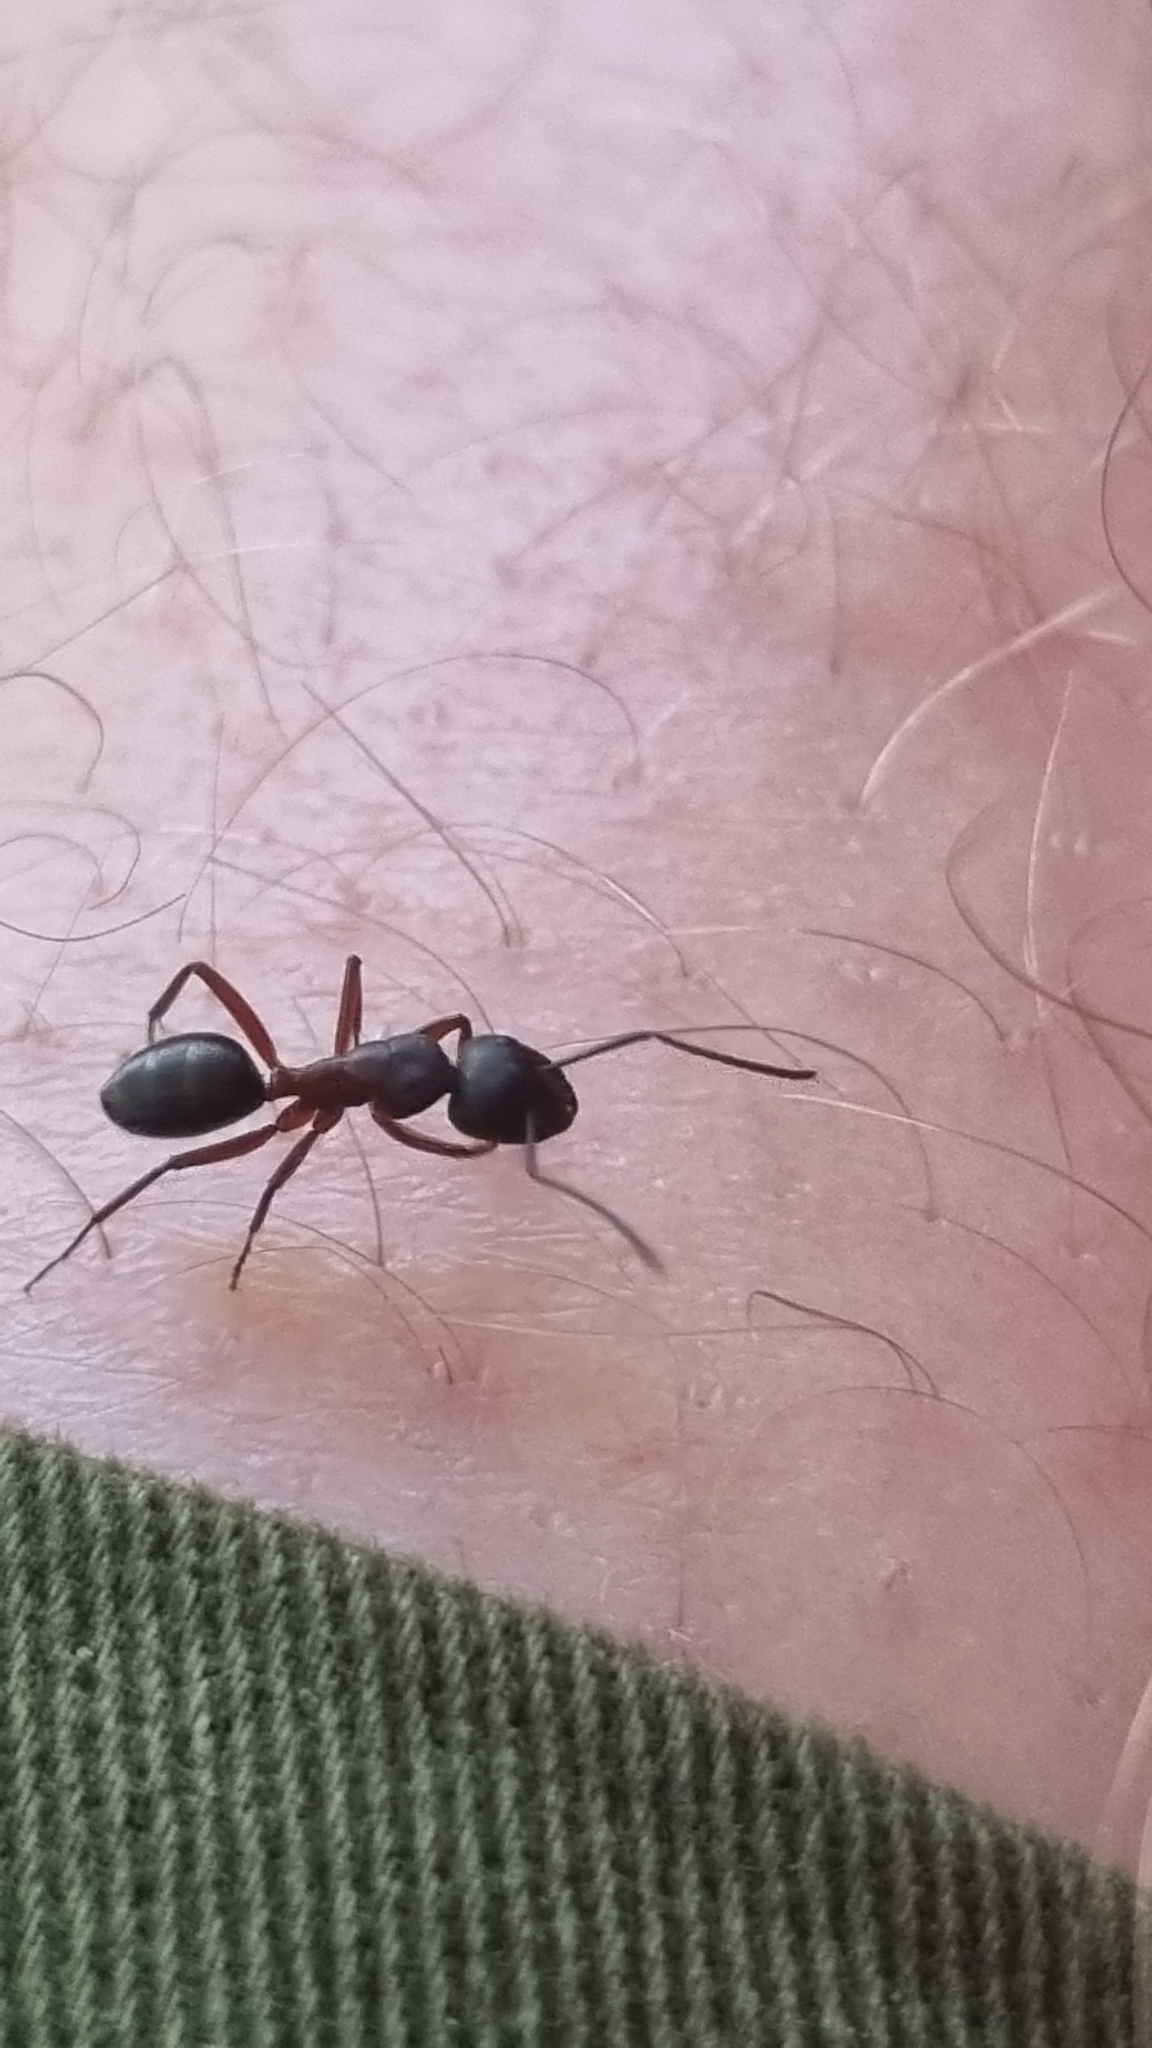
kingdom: Animalia
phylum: Arthropoda
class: Insecta
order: Hymenoptera
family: Formicidae
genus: Camponotus
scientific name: Camponotus innexus
